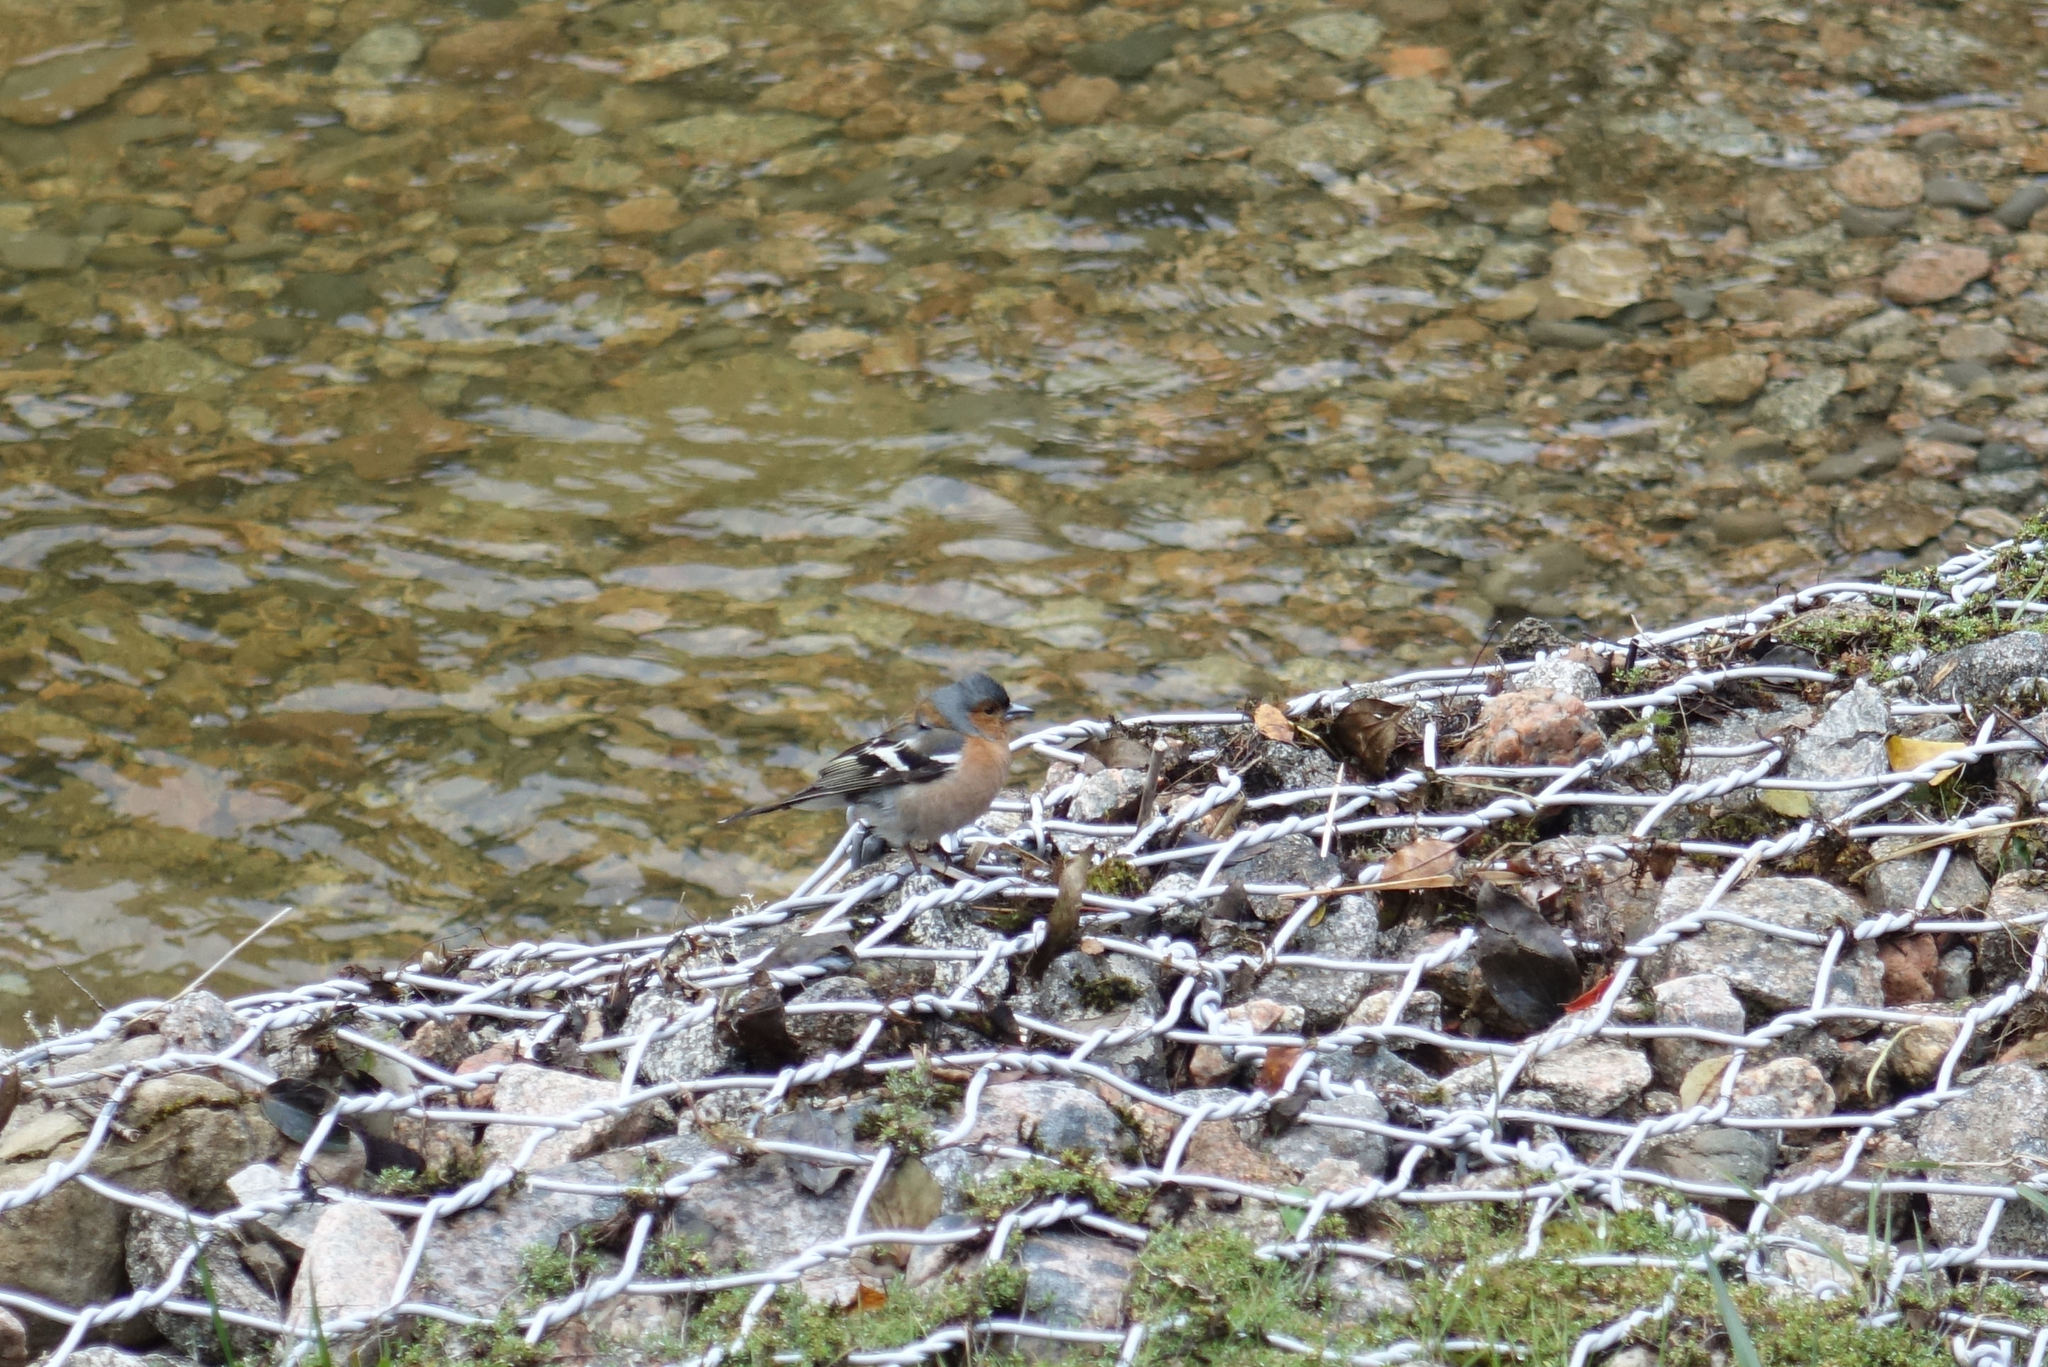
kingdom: Animalia
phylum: Chordata
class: Aves
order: Passeriformes
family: Fringillidae
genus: Fringilla
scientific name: Fringilla coelebs
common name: Common chaffinch
